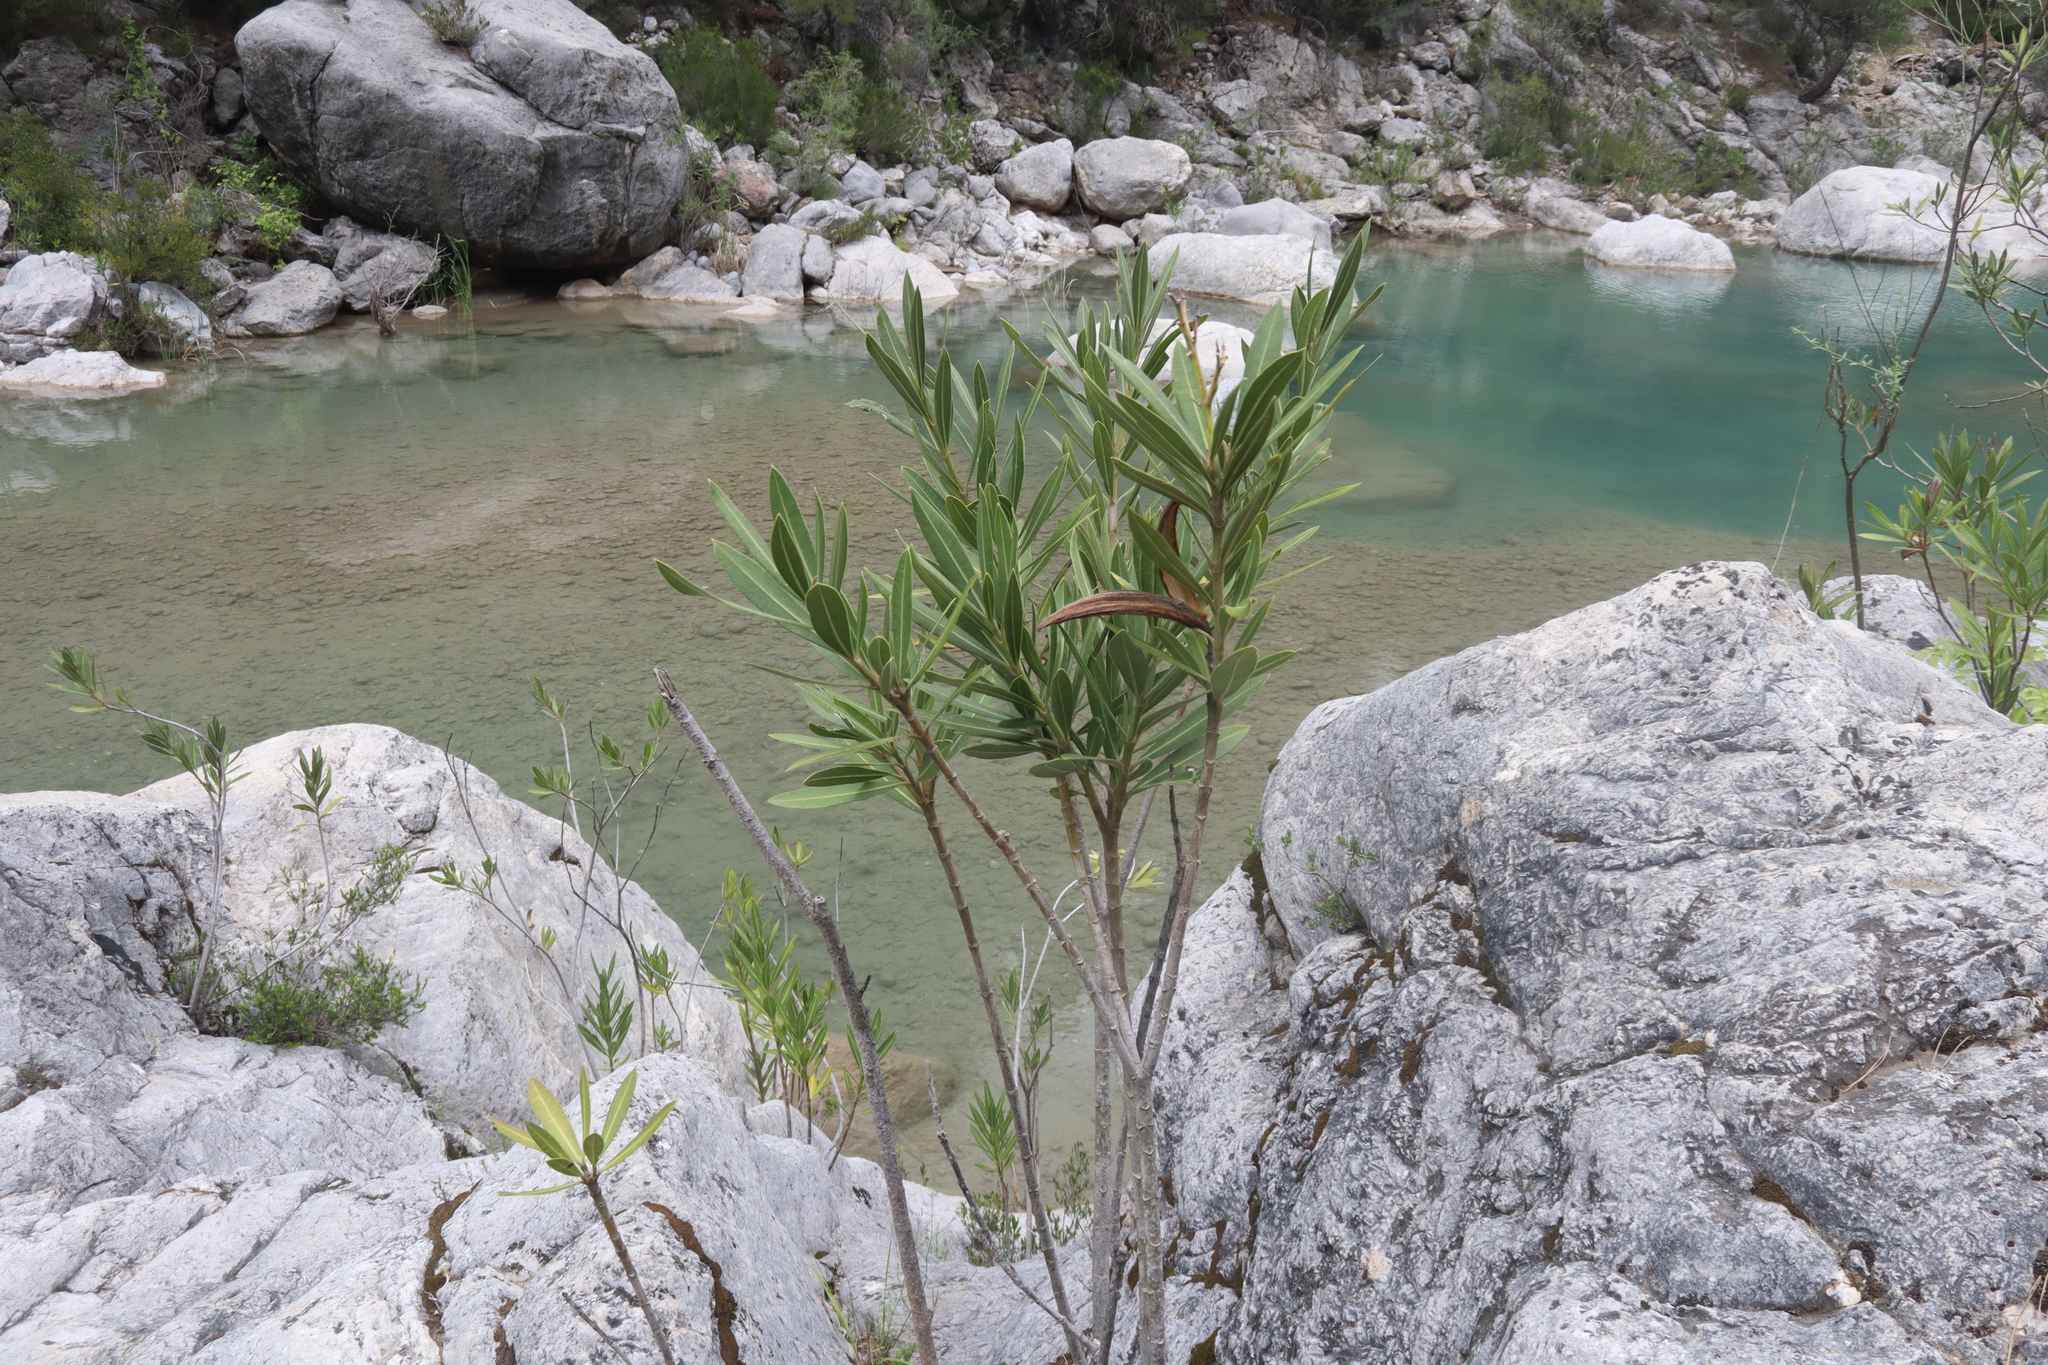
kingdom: Plantae
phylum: Tracheophyta
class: Magnoliopsida
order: Gentianales
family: Apocynaceae
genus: Nerium
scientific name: Nerium oleander
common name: Oleander
